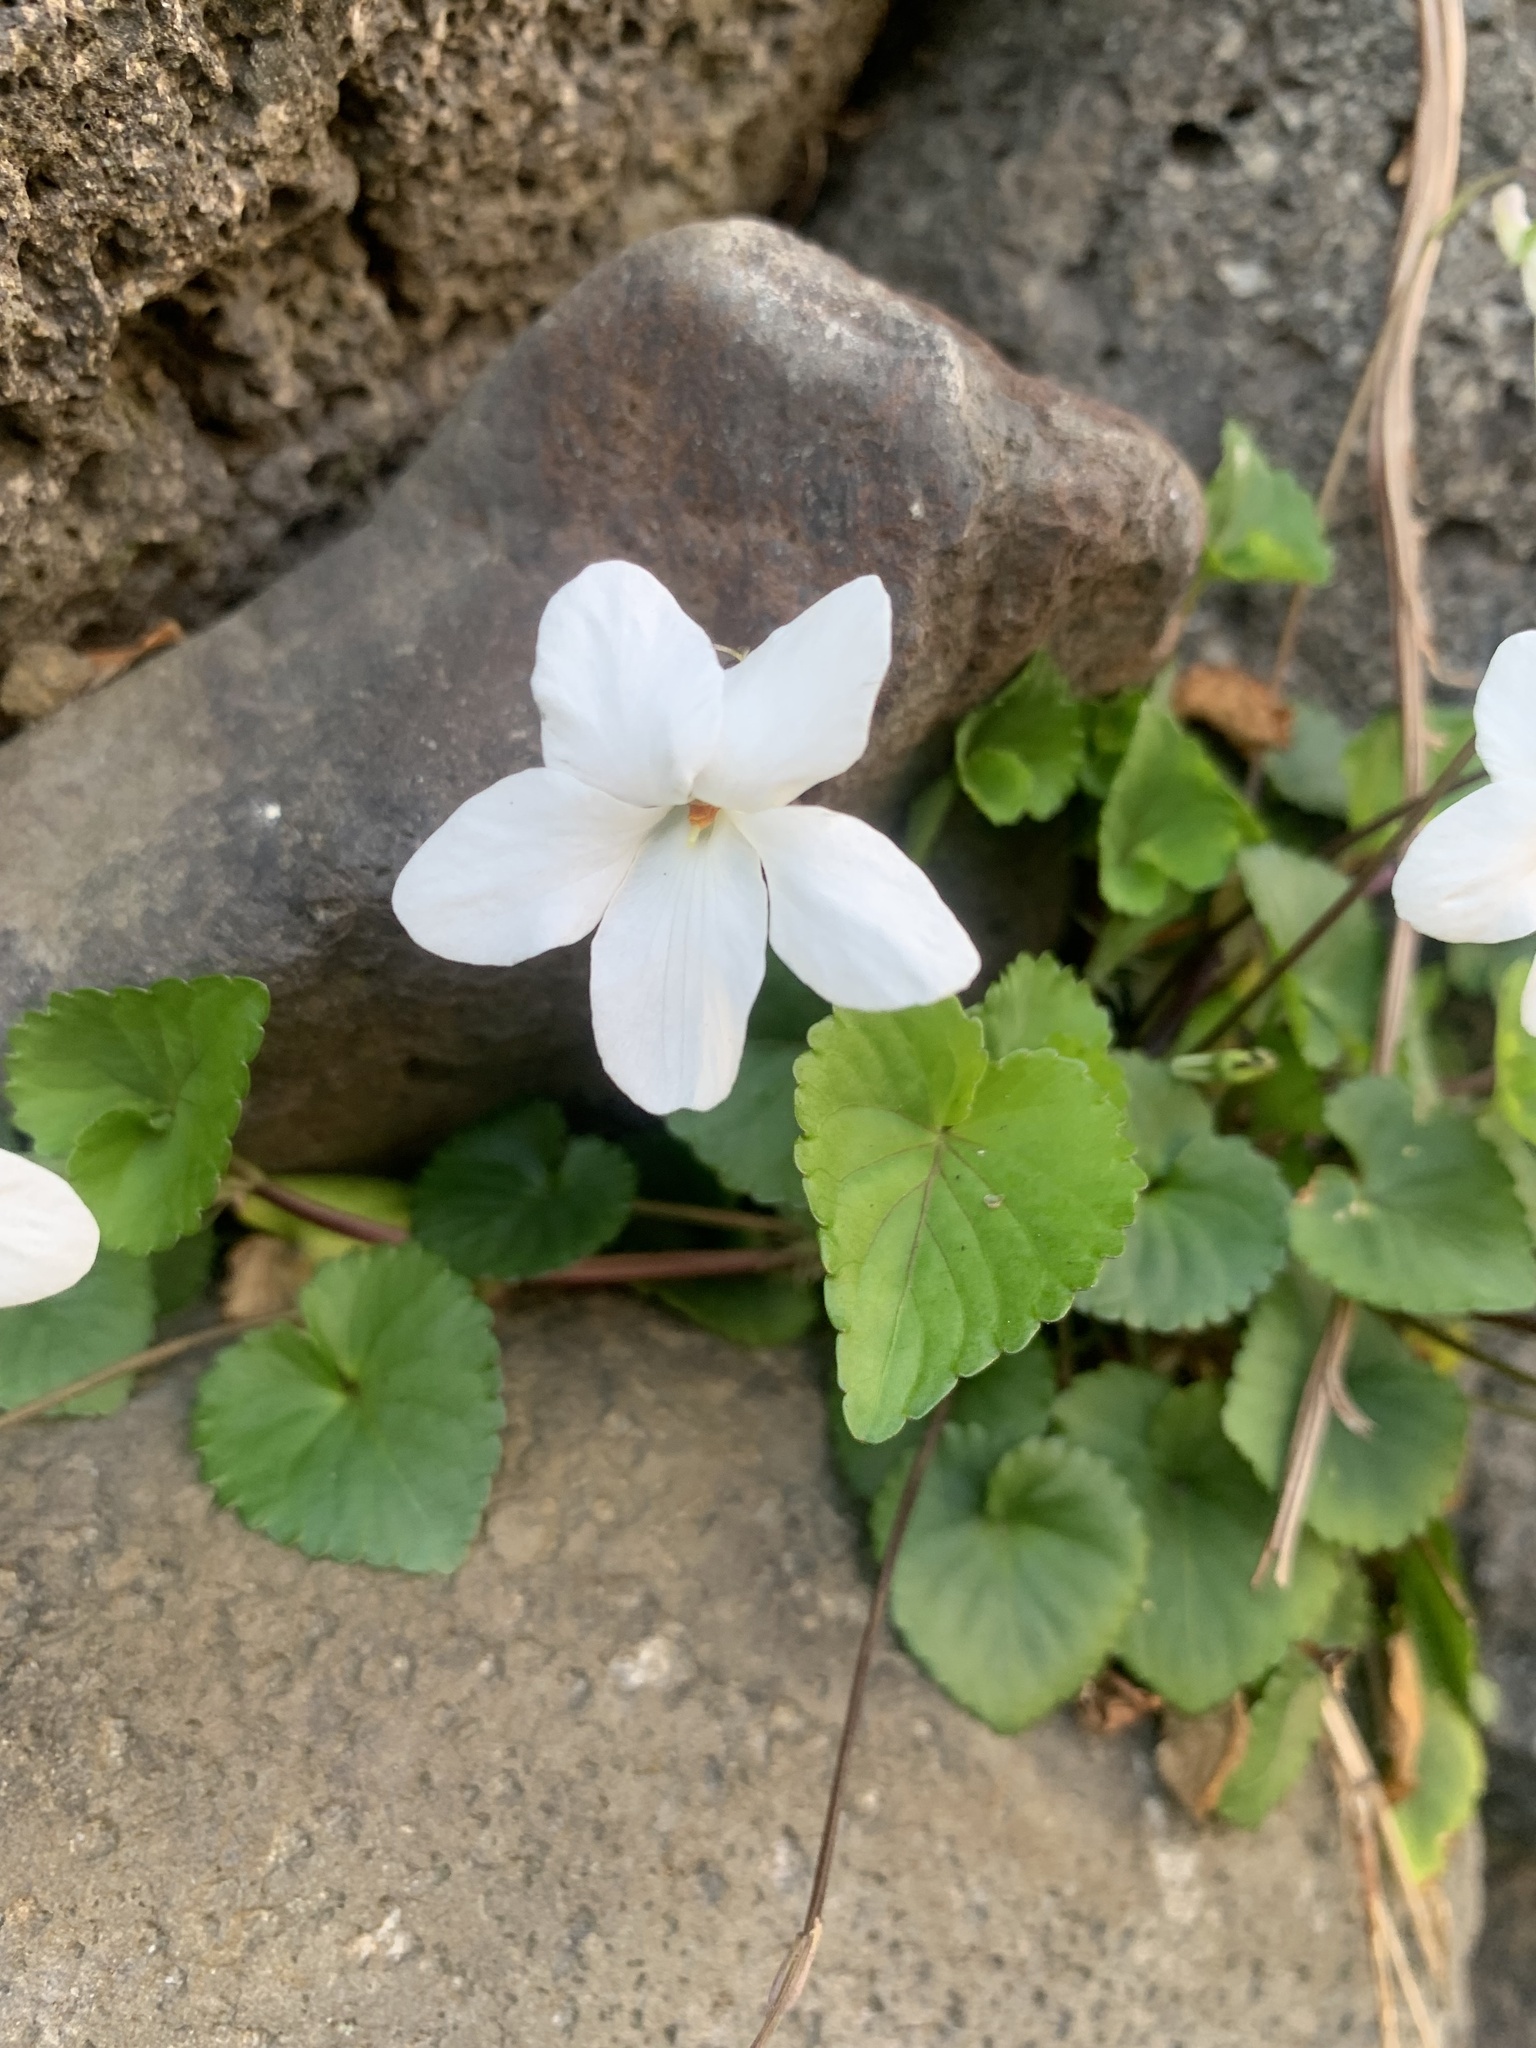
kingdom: Plantae
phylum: Tracheophyta
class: Magnoliopsida
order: Malpighiales
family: Violaceae
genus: Viola
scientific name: Viola grypoceras
